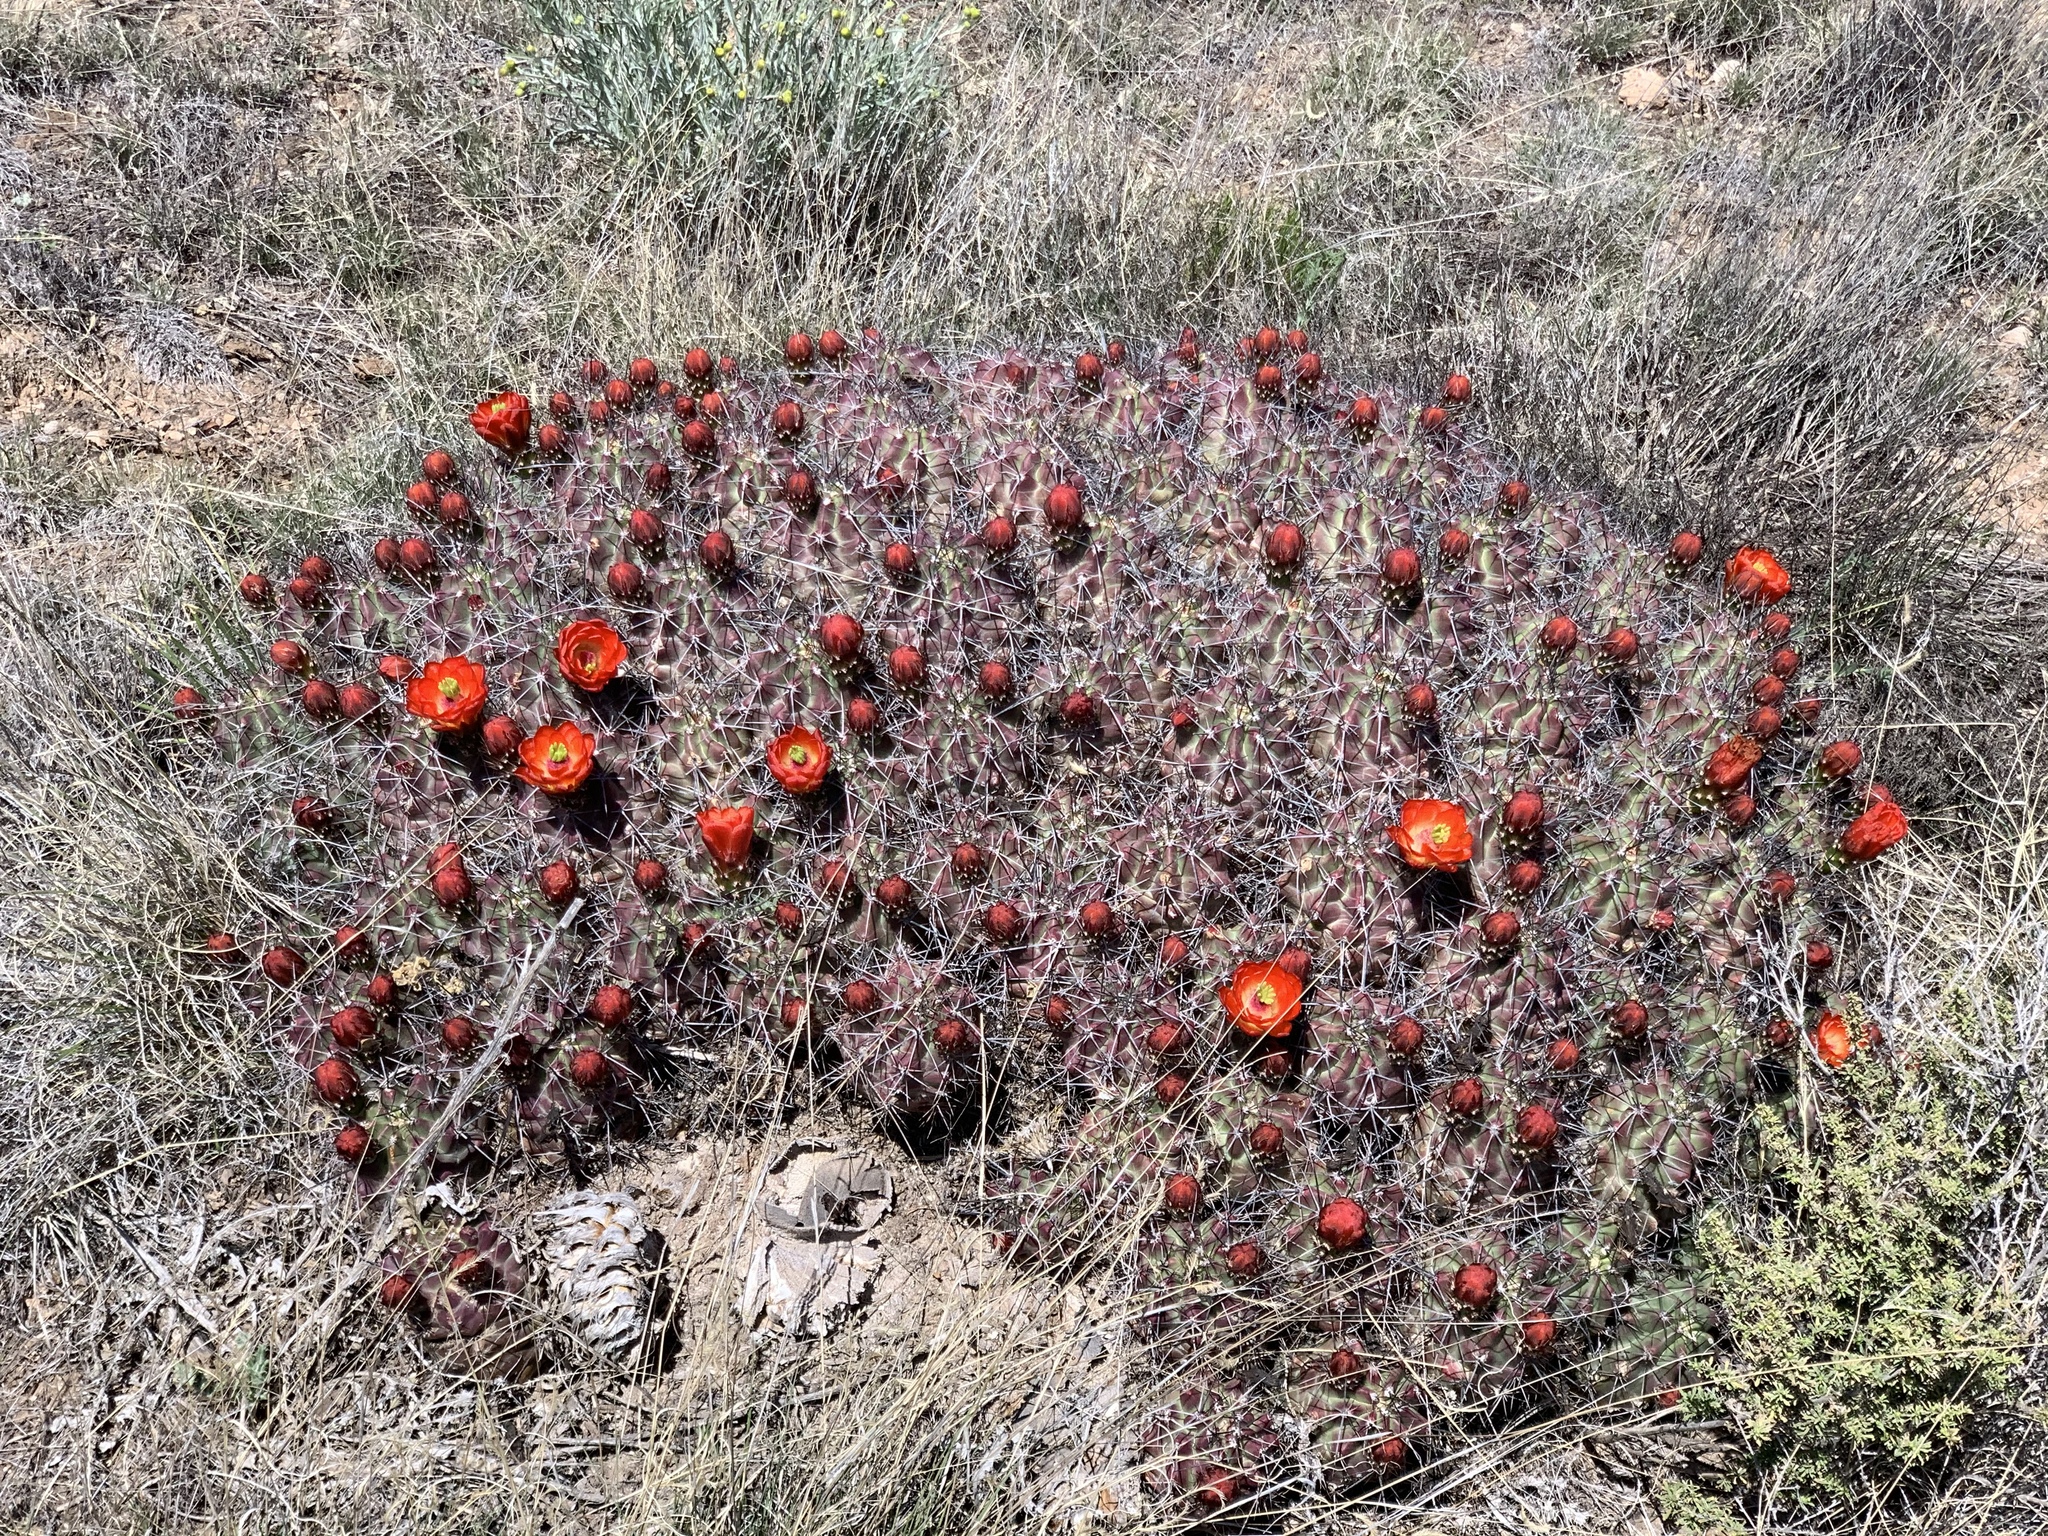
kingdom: Plantae
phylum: Tracheophyta
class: Magnoliopsida
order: Caryophyllales
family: Cactaceae
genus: Echinocereus
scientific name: Echinocereus coccineus
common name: Scarlet hedgehog cactus
